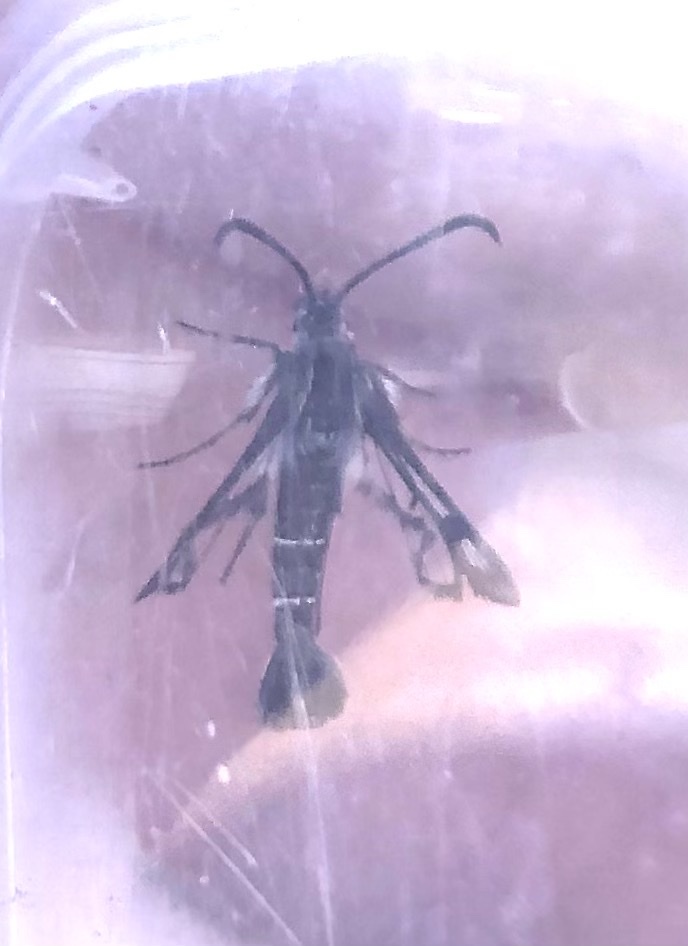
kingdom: Animalia
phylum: Arthropoda
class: Insecta
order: Lepidoptera
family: Sesiidae
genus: Pyropteron
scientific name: Pyropteron affinis
